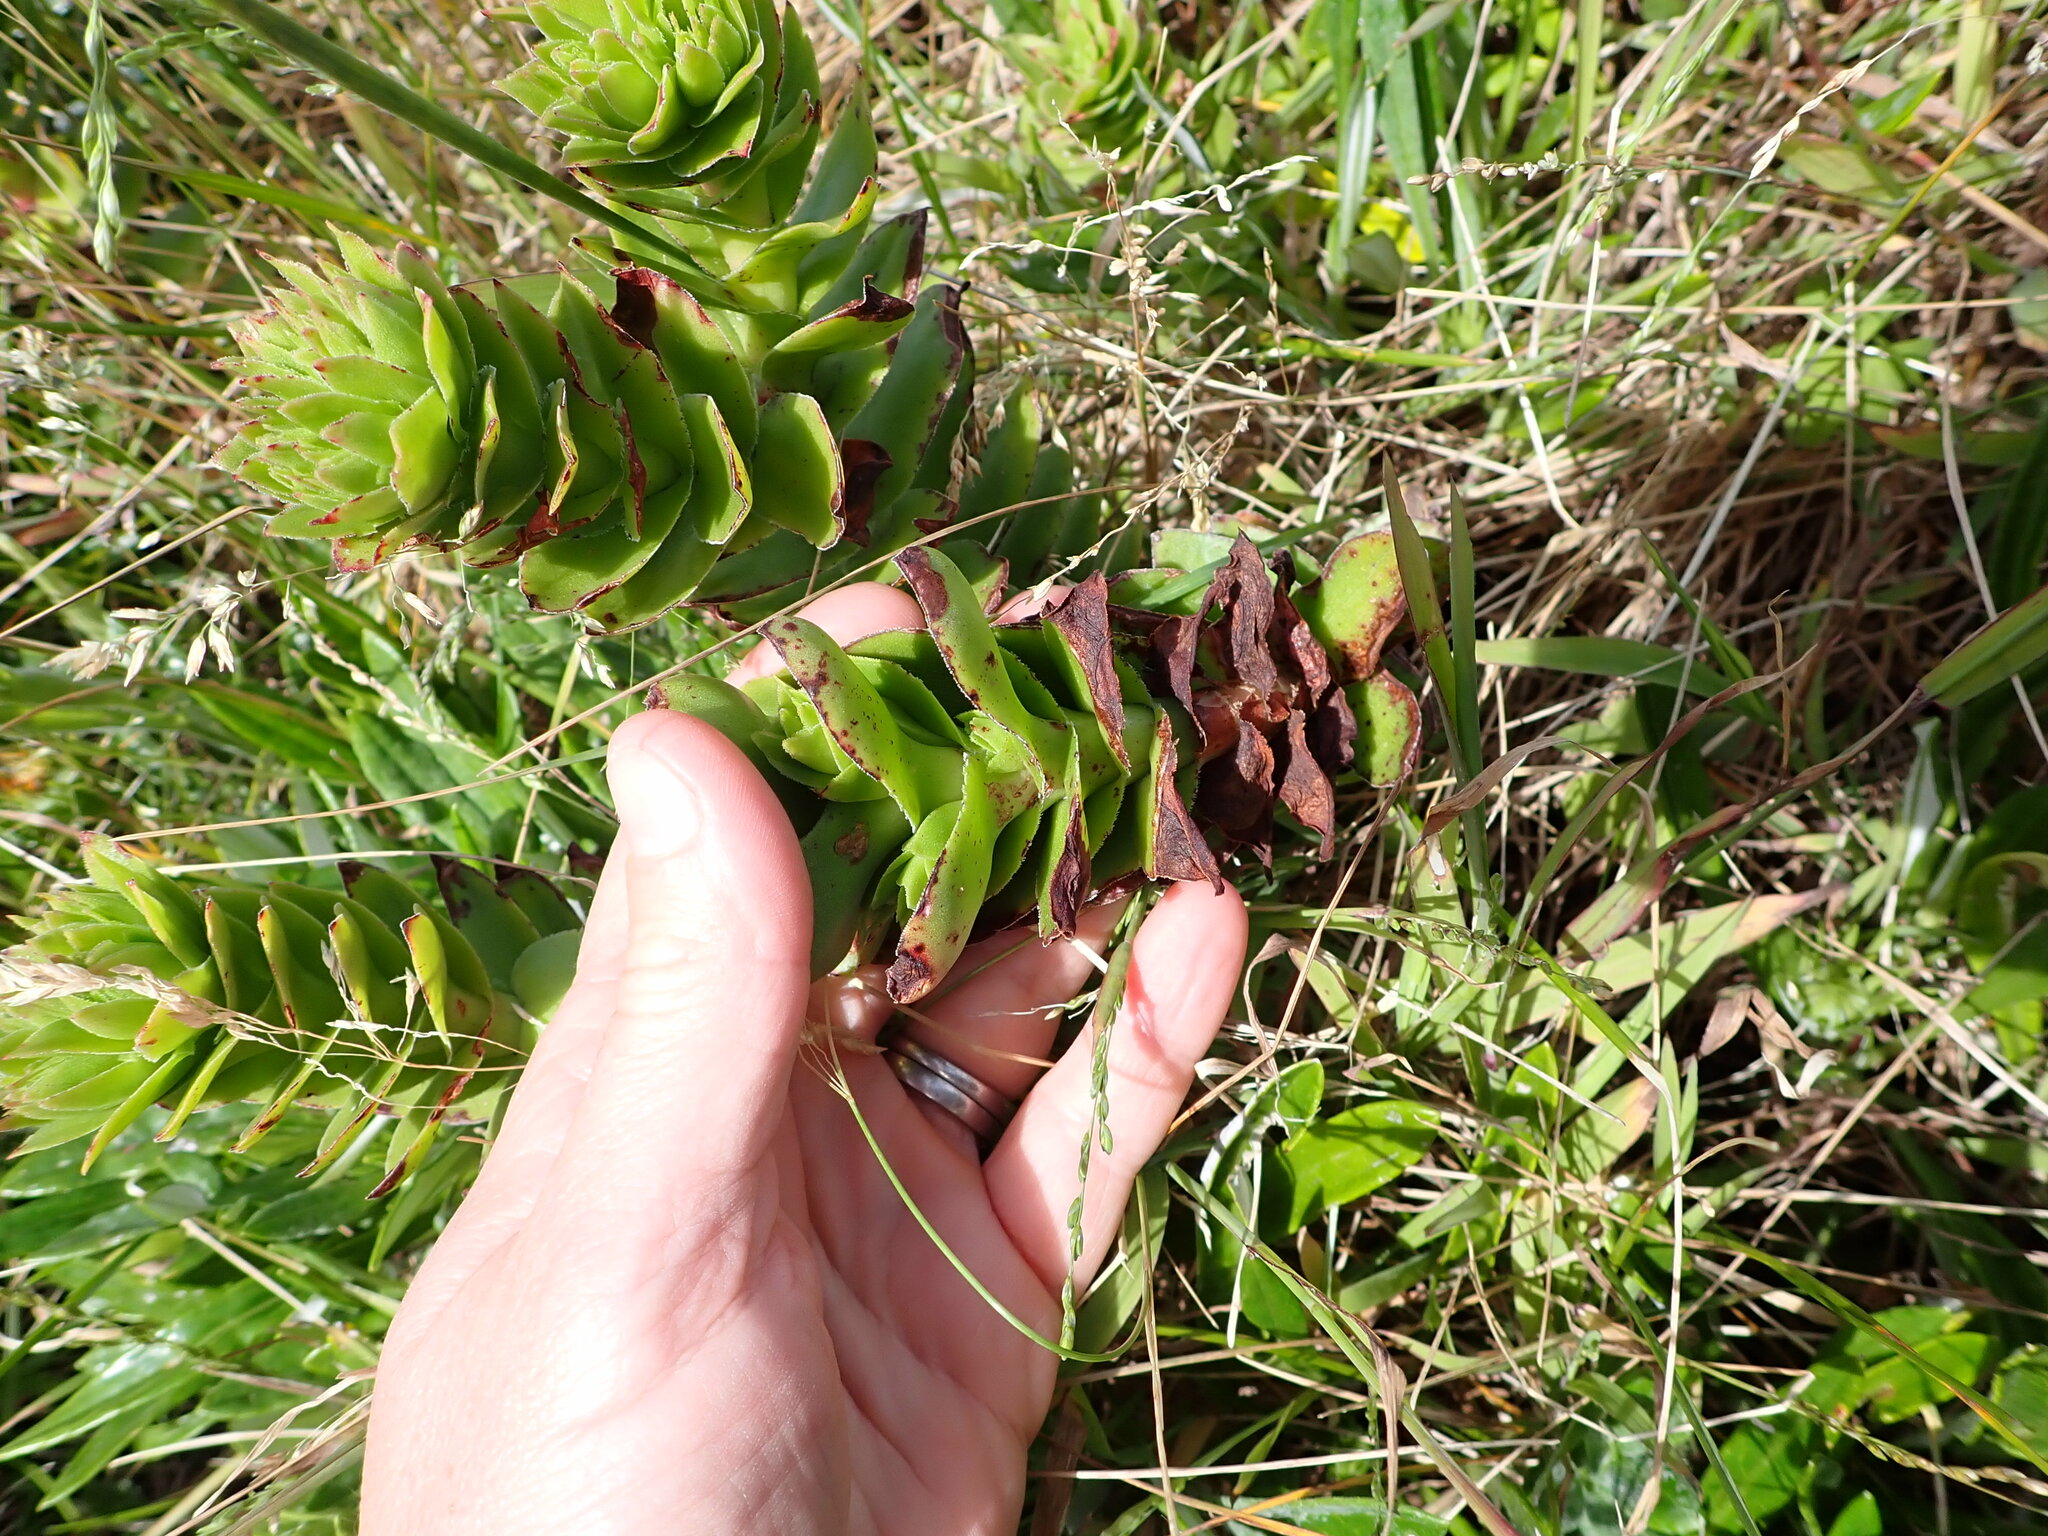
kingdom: Plantae
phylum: Tracheophyta
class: Magnoliopsida
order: Saxifragales
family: Crassulaceae
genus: Crassula
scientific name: Crassula coccinea
